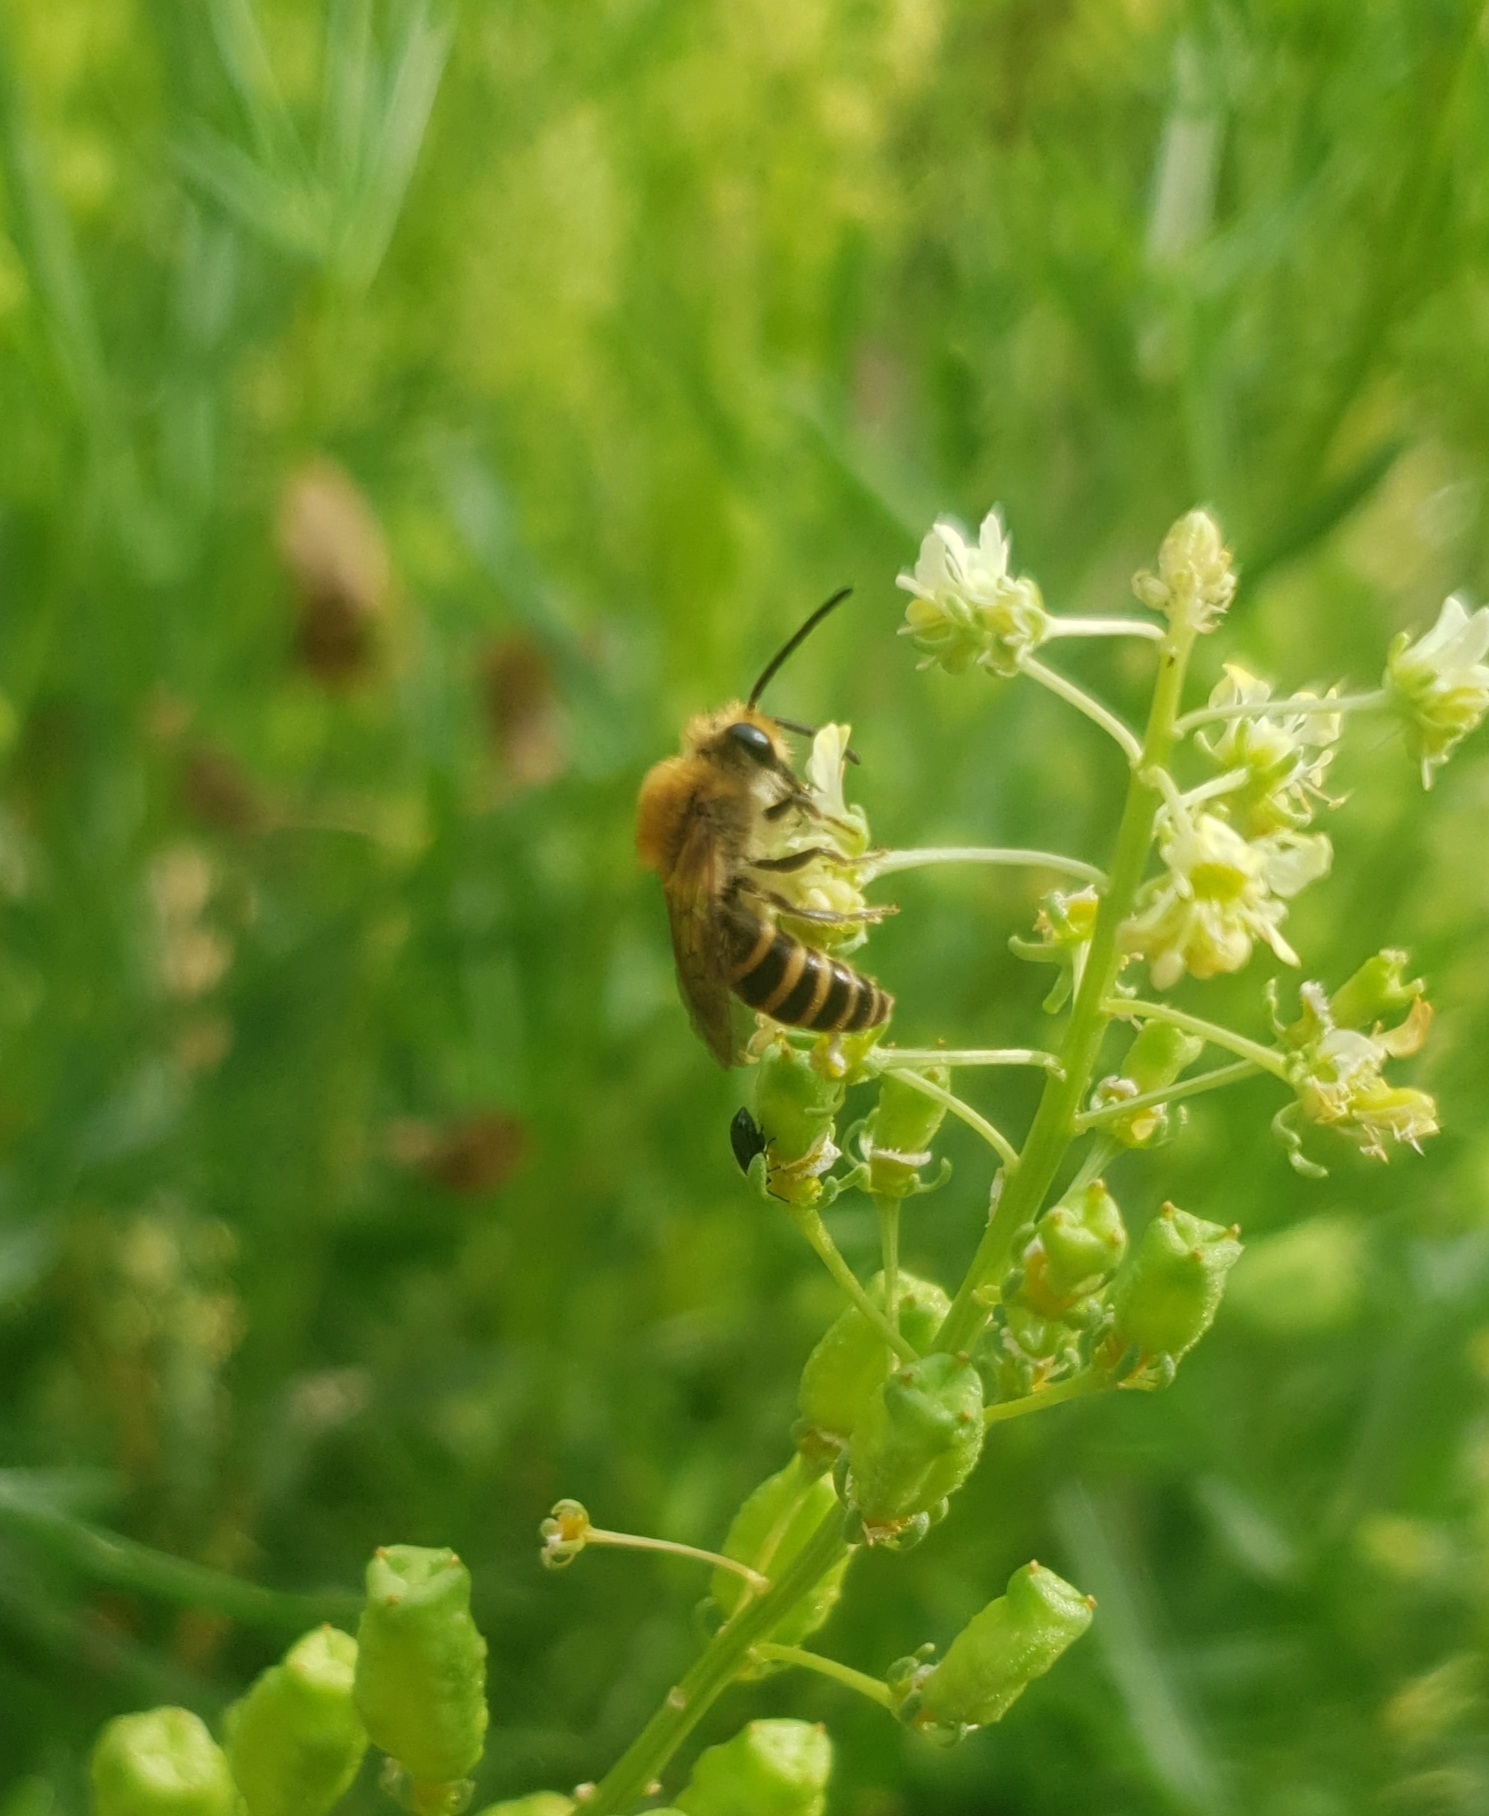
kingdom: Animalia
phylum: Arthropoda
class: Insecta
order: Hymenoptera
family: Colletidae
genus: Colletes
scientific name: Colletes
